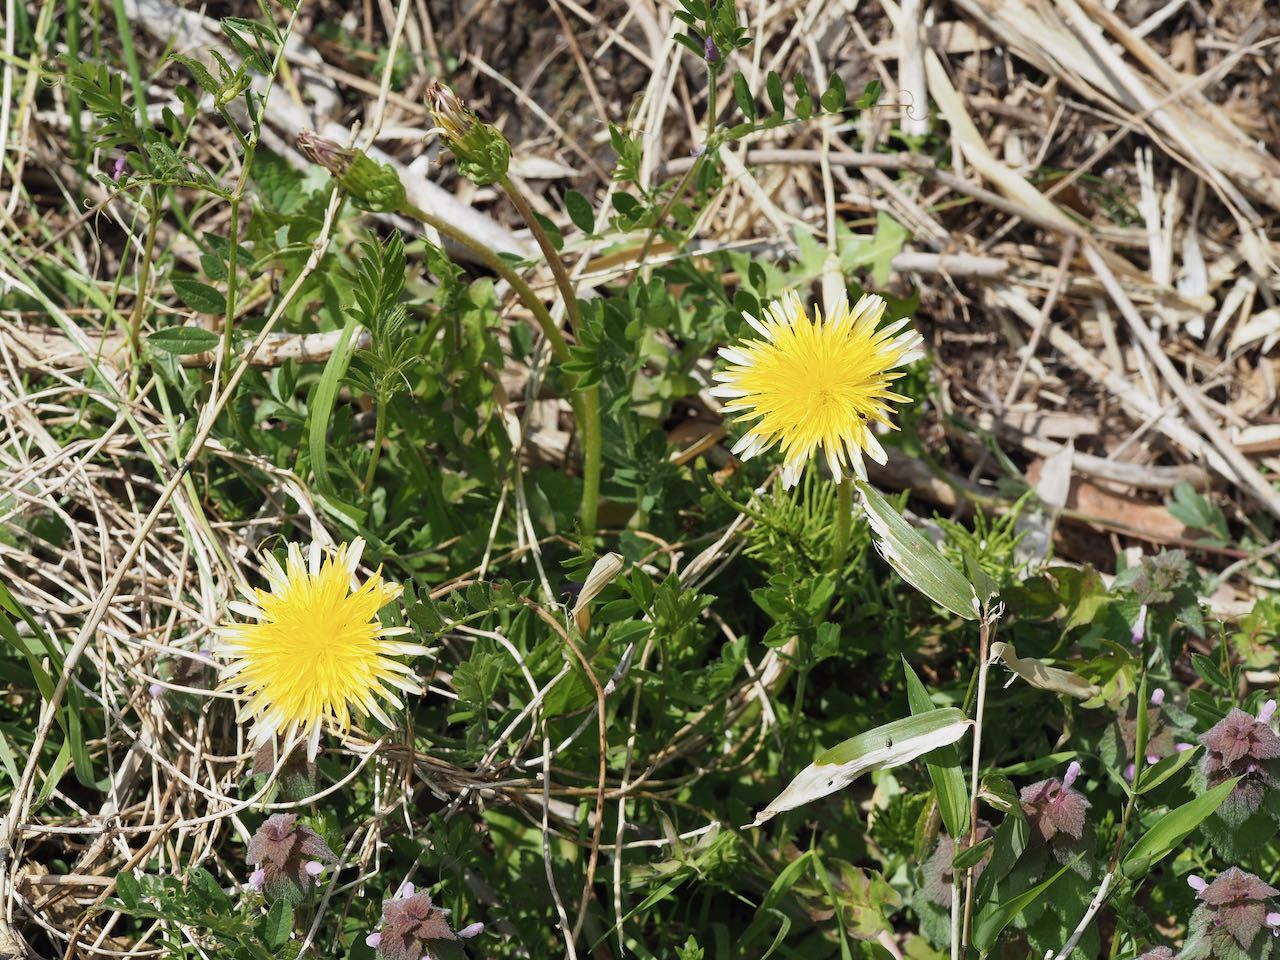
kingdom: Plantae
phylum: Tracheophyta
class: Magnoliopsida
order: Asterales
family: Asteraceae
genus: Taraxacum
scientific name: Taraxacum platycarpum
